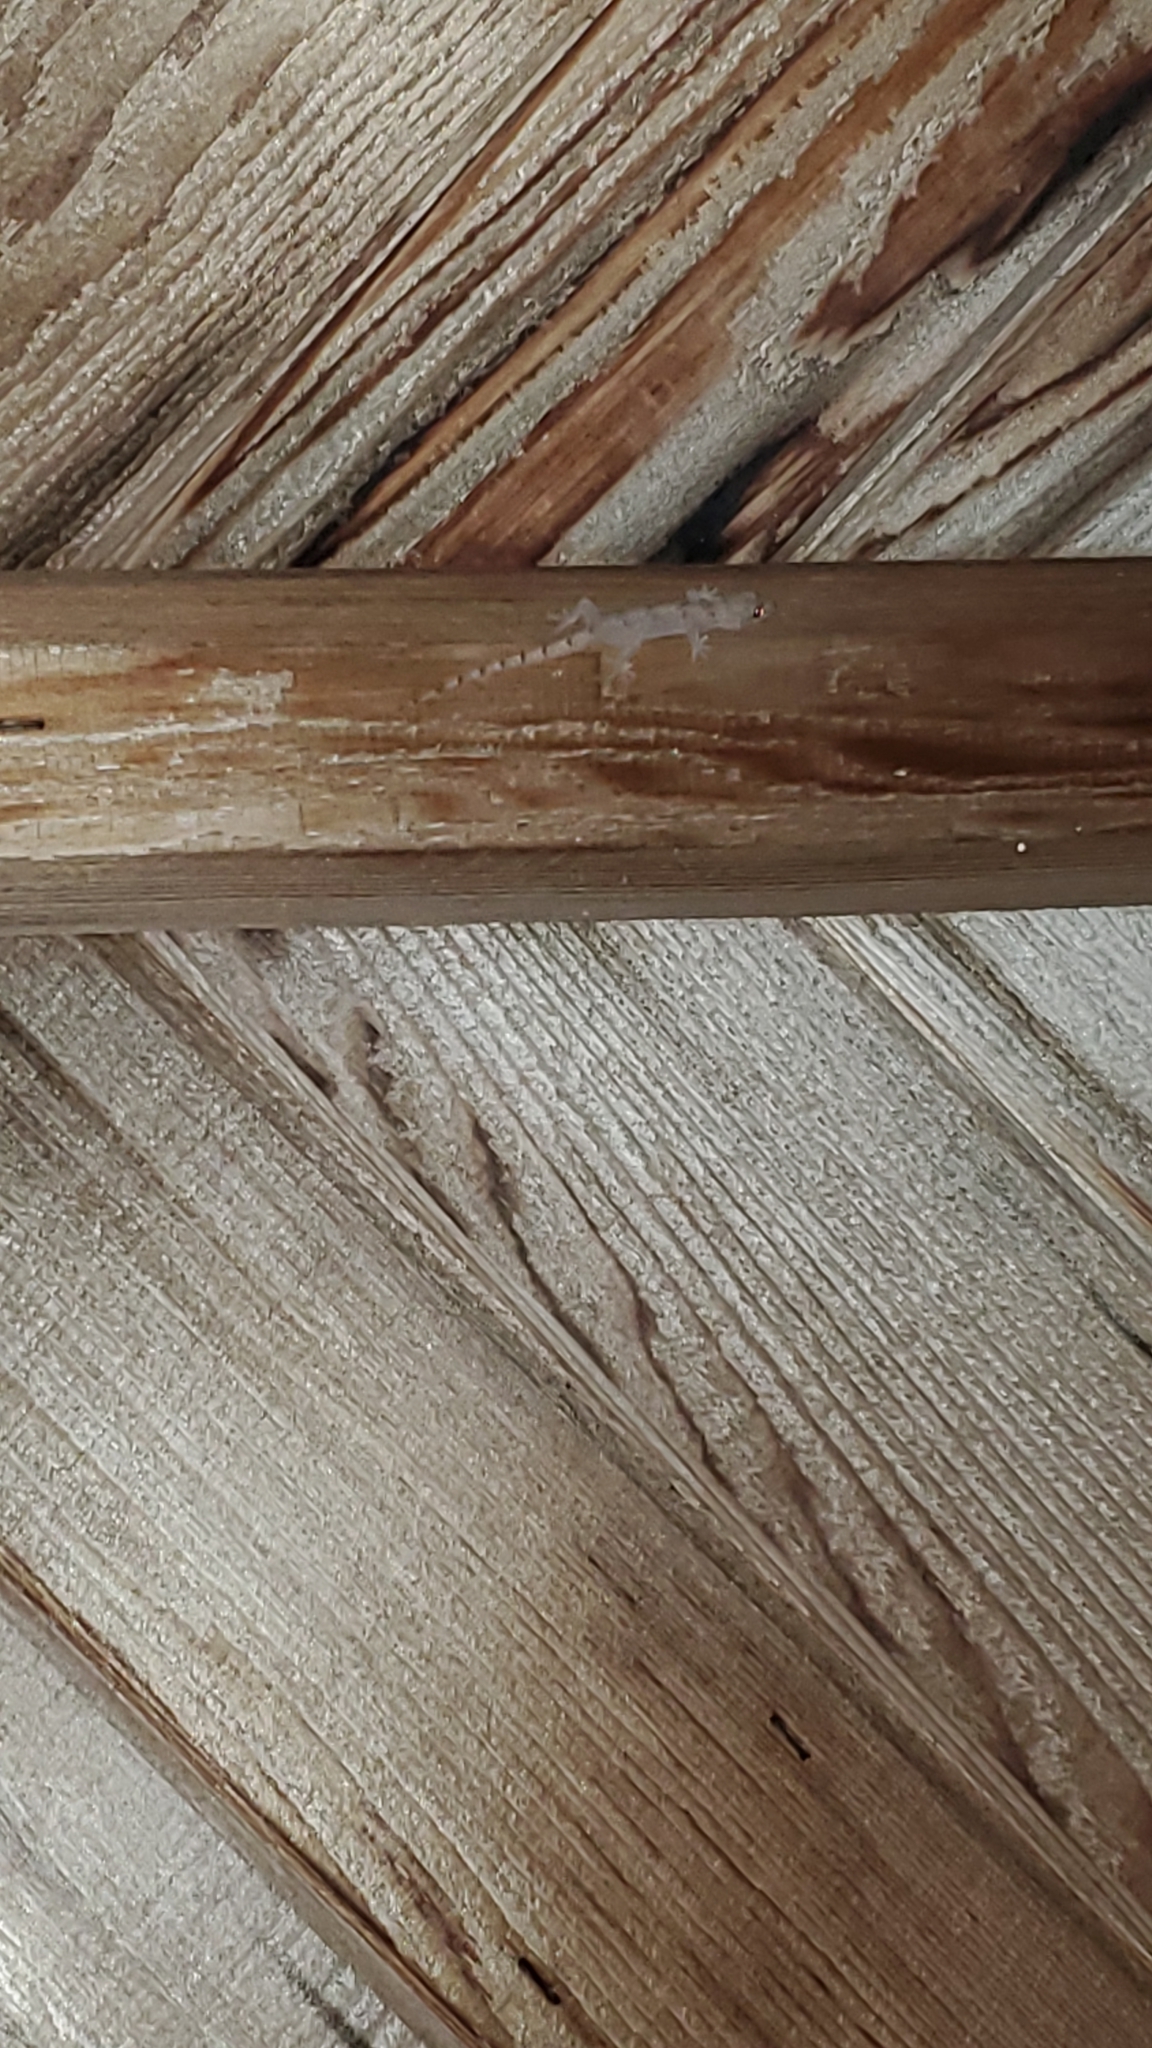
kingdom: Animalia
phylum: Chordata
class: Squamata
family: Gekkonidae
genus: Hemidactylus
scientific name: Hemidactylus mabouia
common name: House gecko
